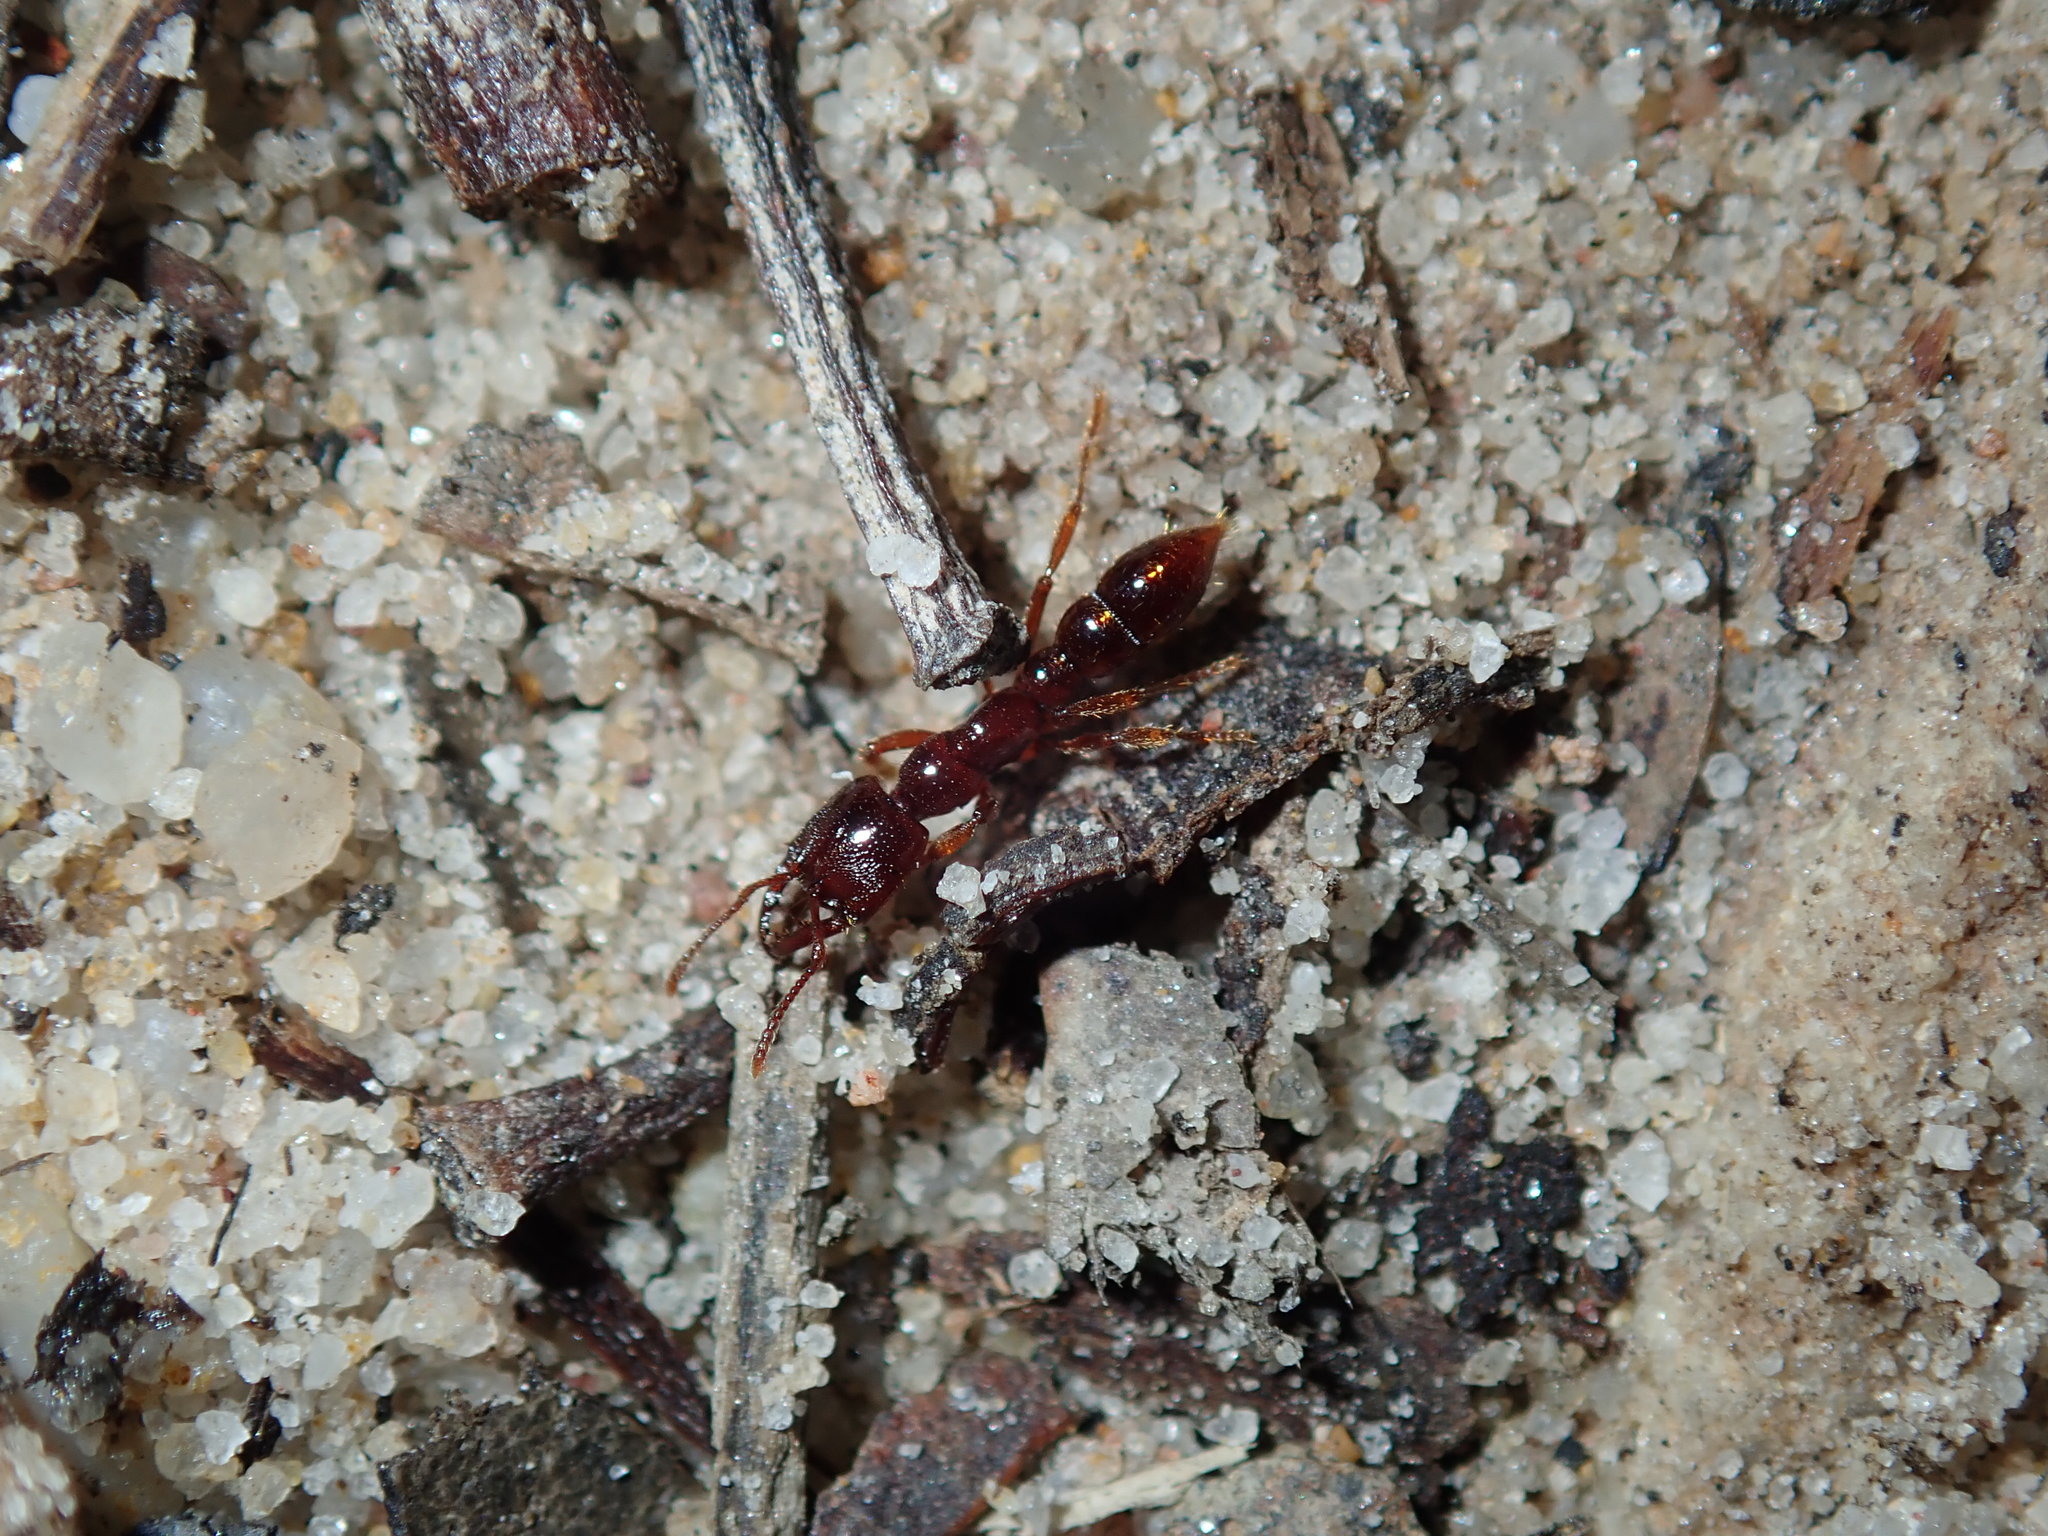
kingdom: Animalia
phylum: Arthropoda
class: Insecta
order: Hymenoptera
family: Formicidae
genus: Amblyopone
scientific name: Amblyopone australis
